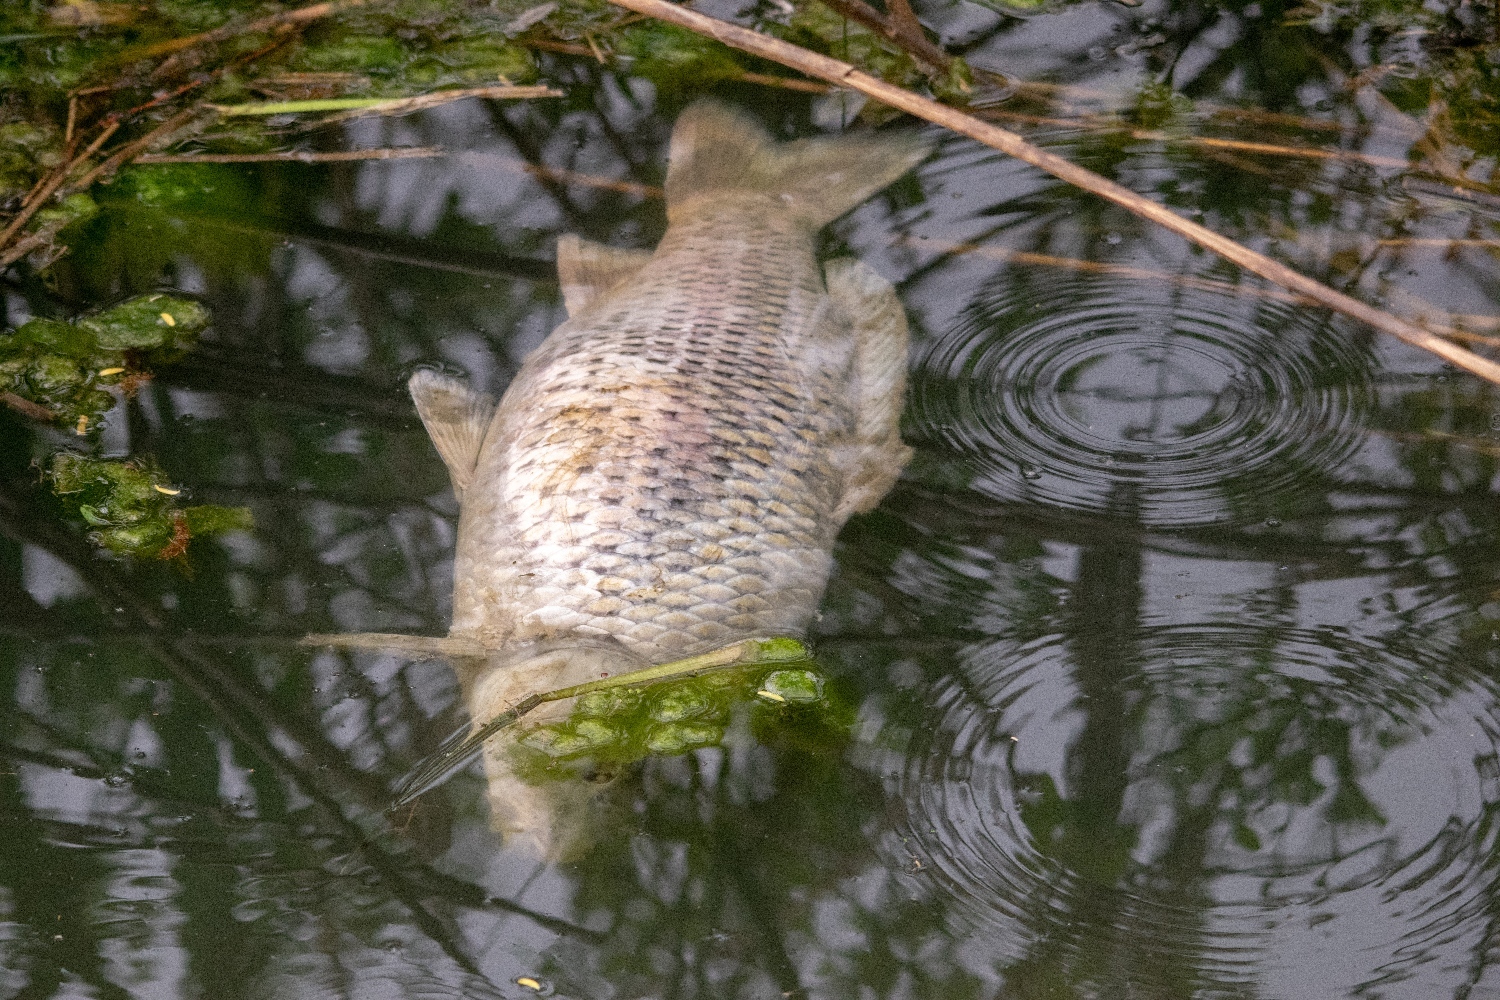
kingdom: Animalia
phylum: Chordata
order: Cypriniformes
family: Cyprinidae
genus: Cyprinus
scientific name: Cyprinus carpio
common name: Common carp
